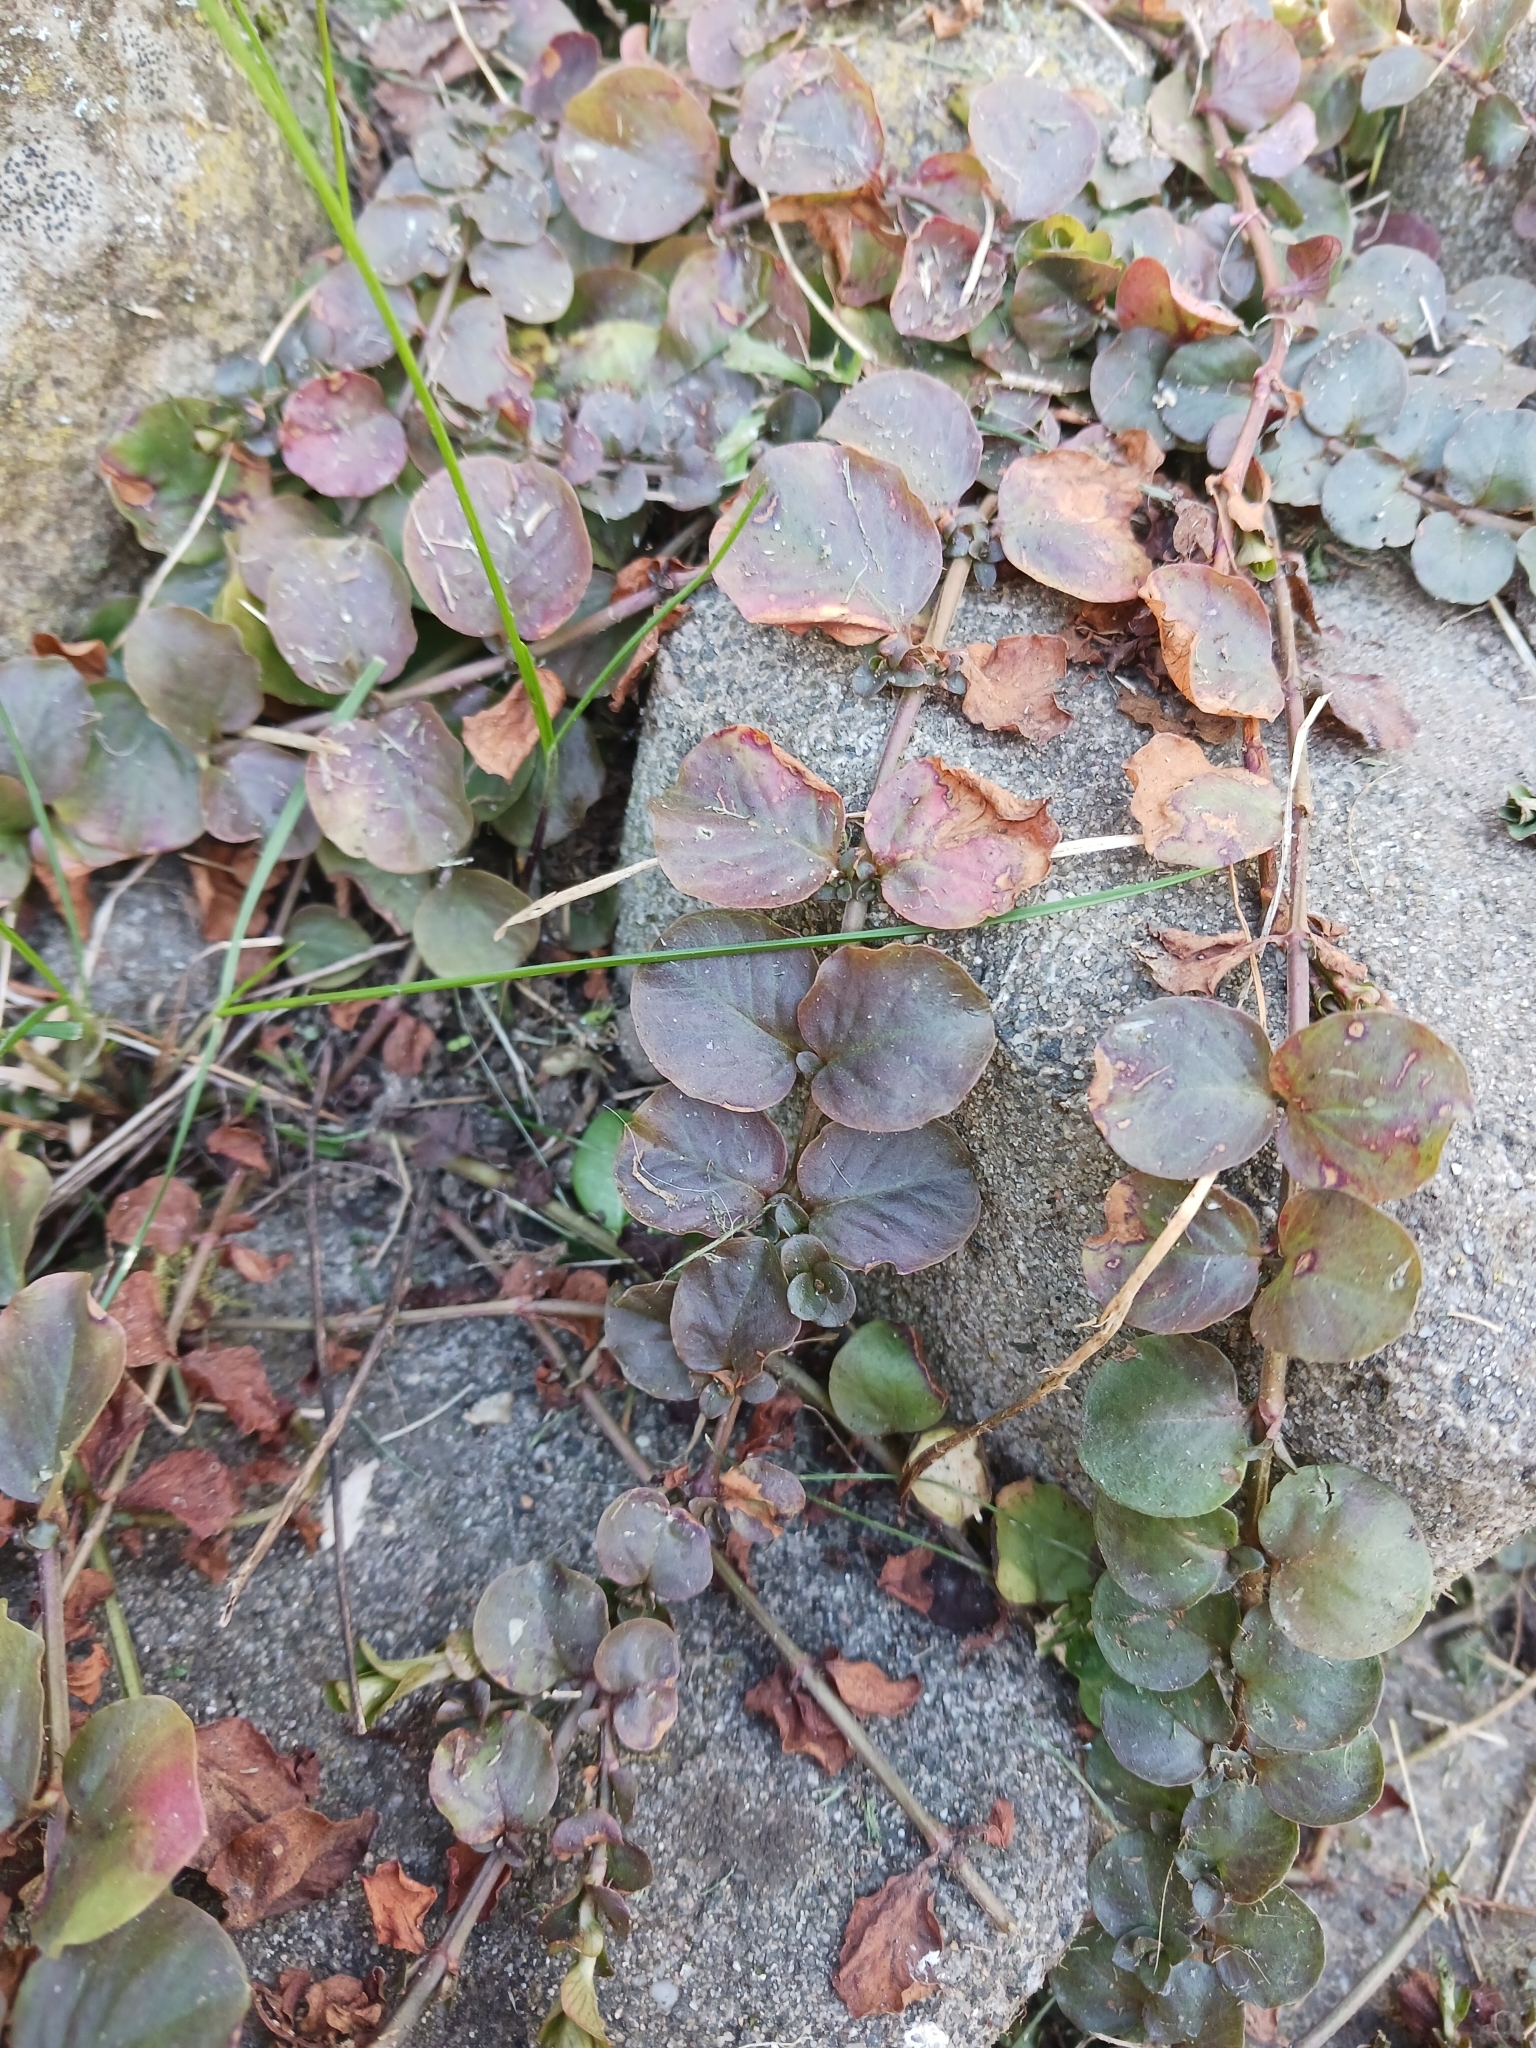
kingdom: Plantae
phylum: Tracheophyta
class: Magnoliopsida
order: Ericales
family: Primulaceae
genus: Lysimachia
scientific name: Lysimachia nummularia
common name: Moneywort
